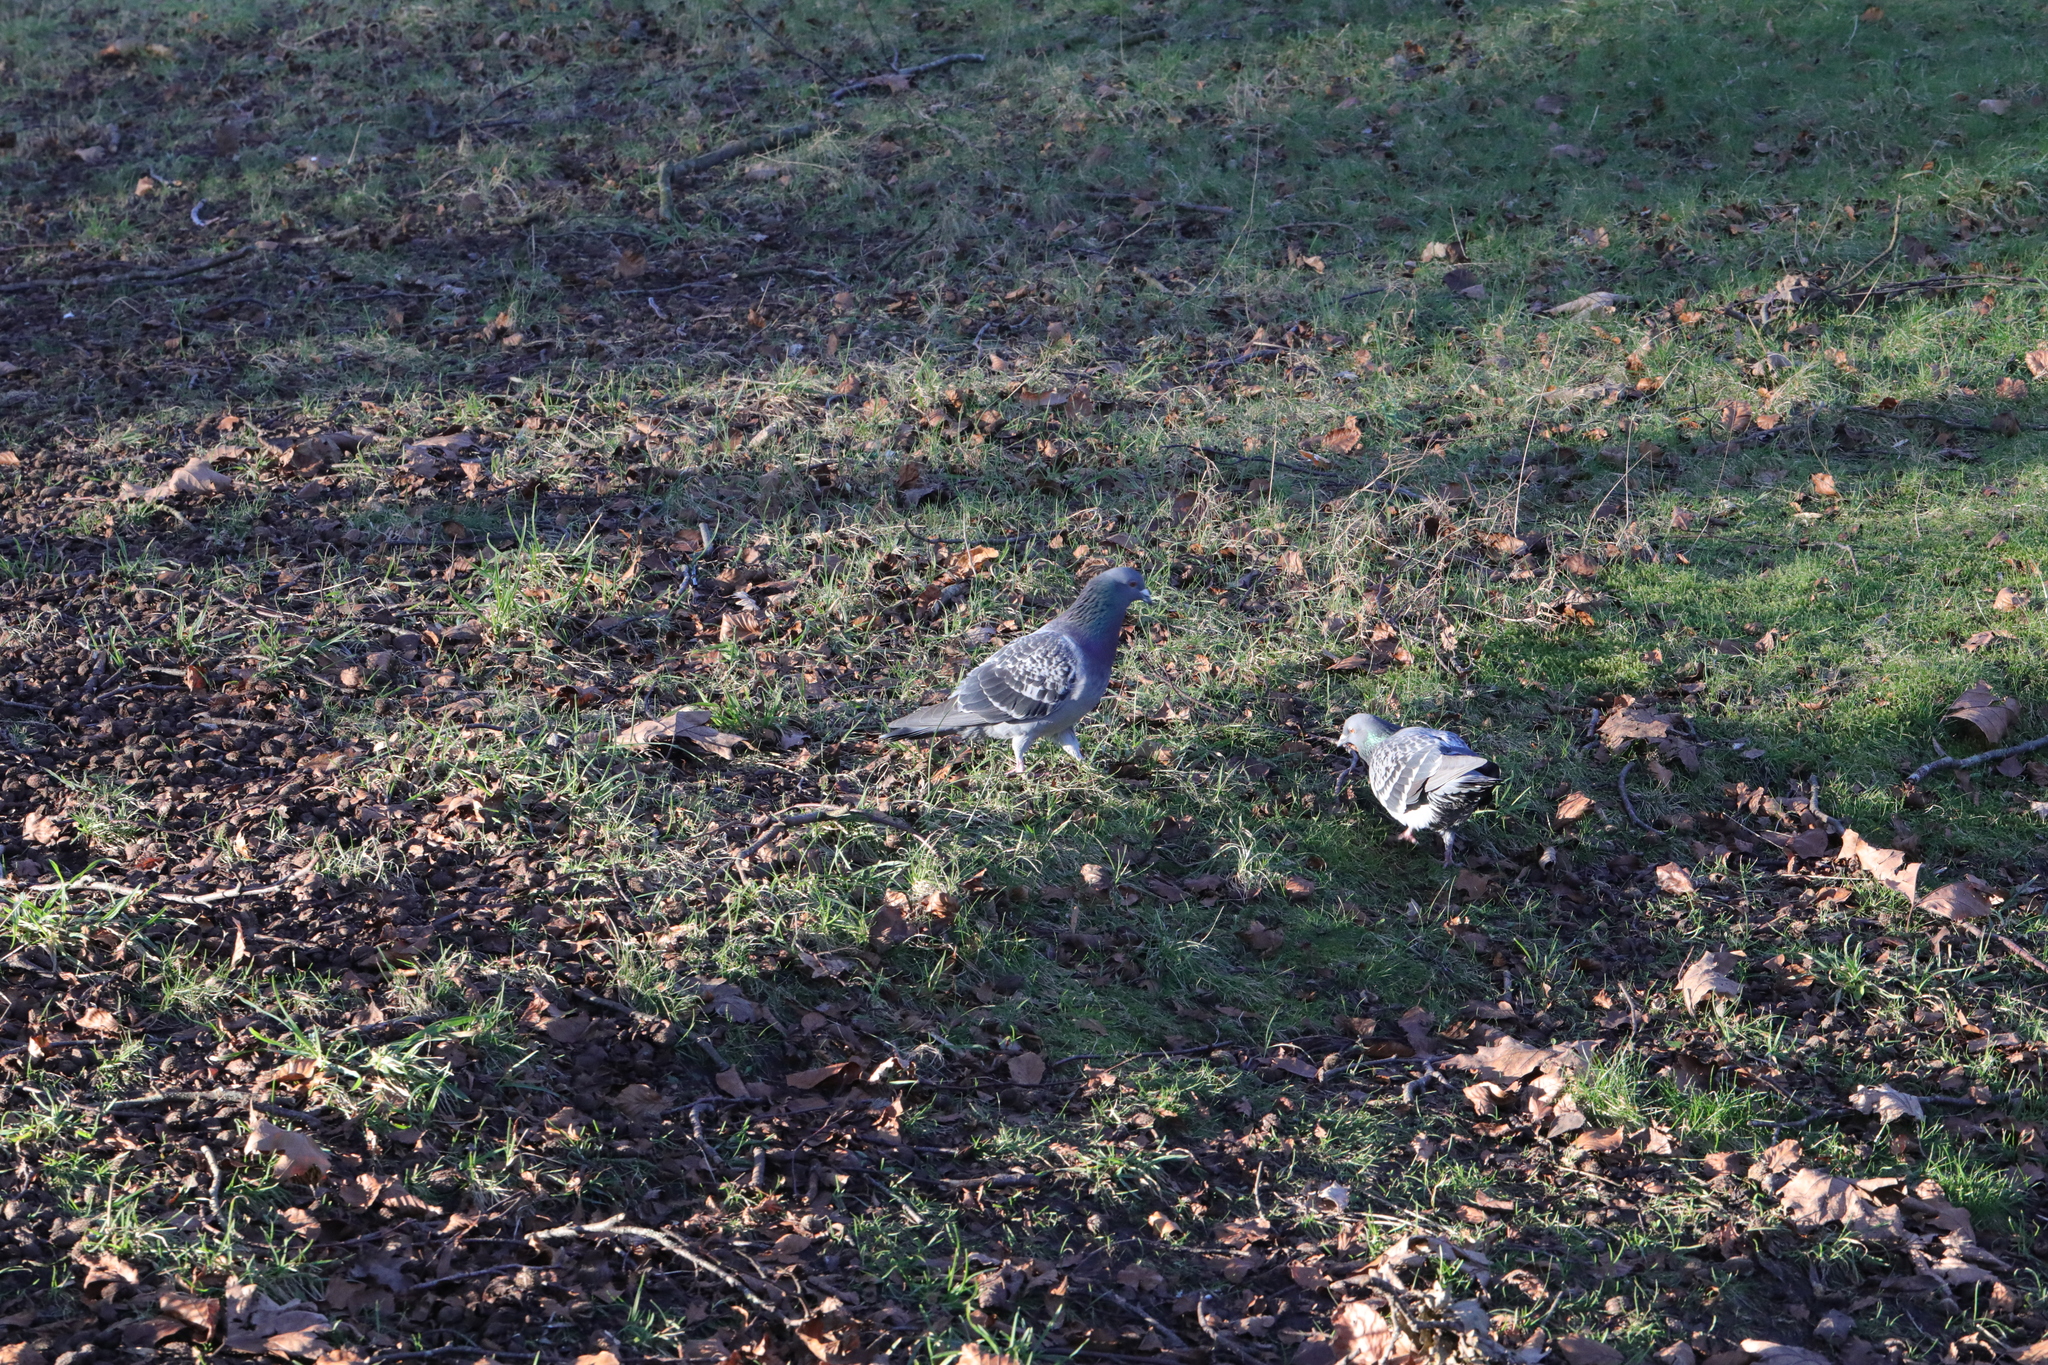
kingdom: Animalia
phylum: Chordata
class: Aves
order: Columbiformes
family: Columbidae
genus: Columba
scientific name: Columba livia
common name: Rock pigeon
